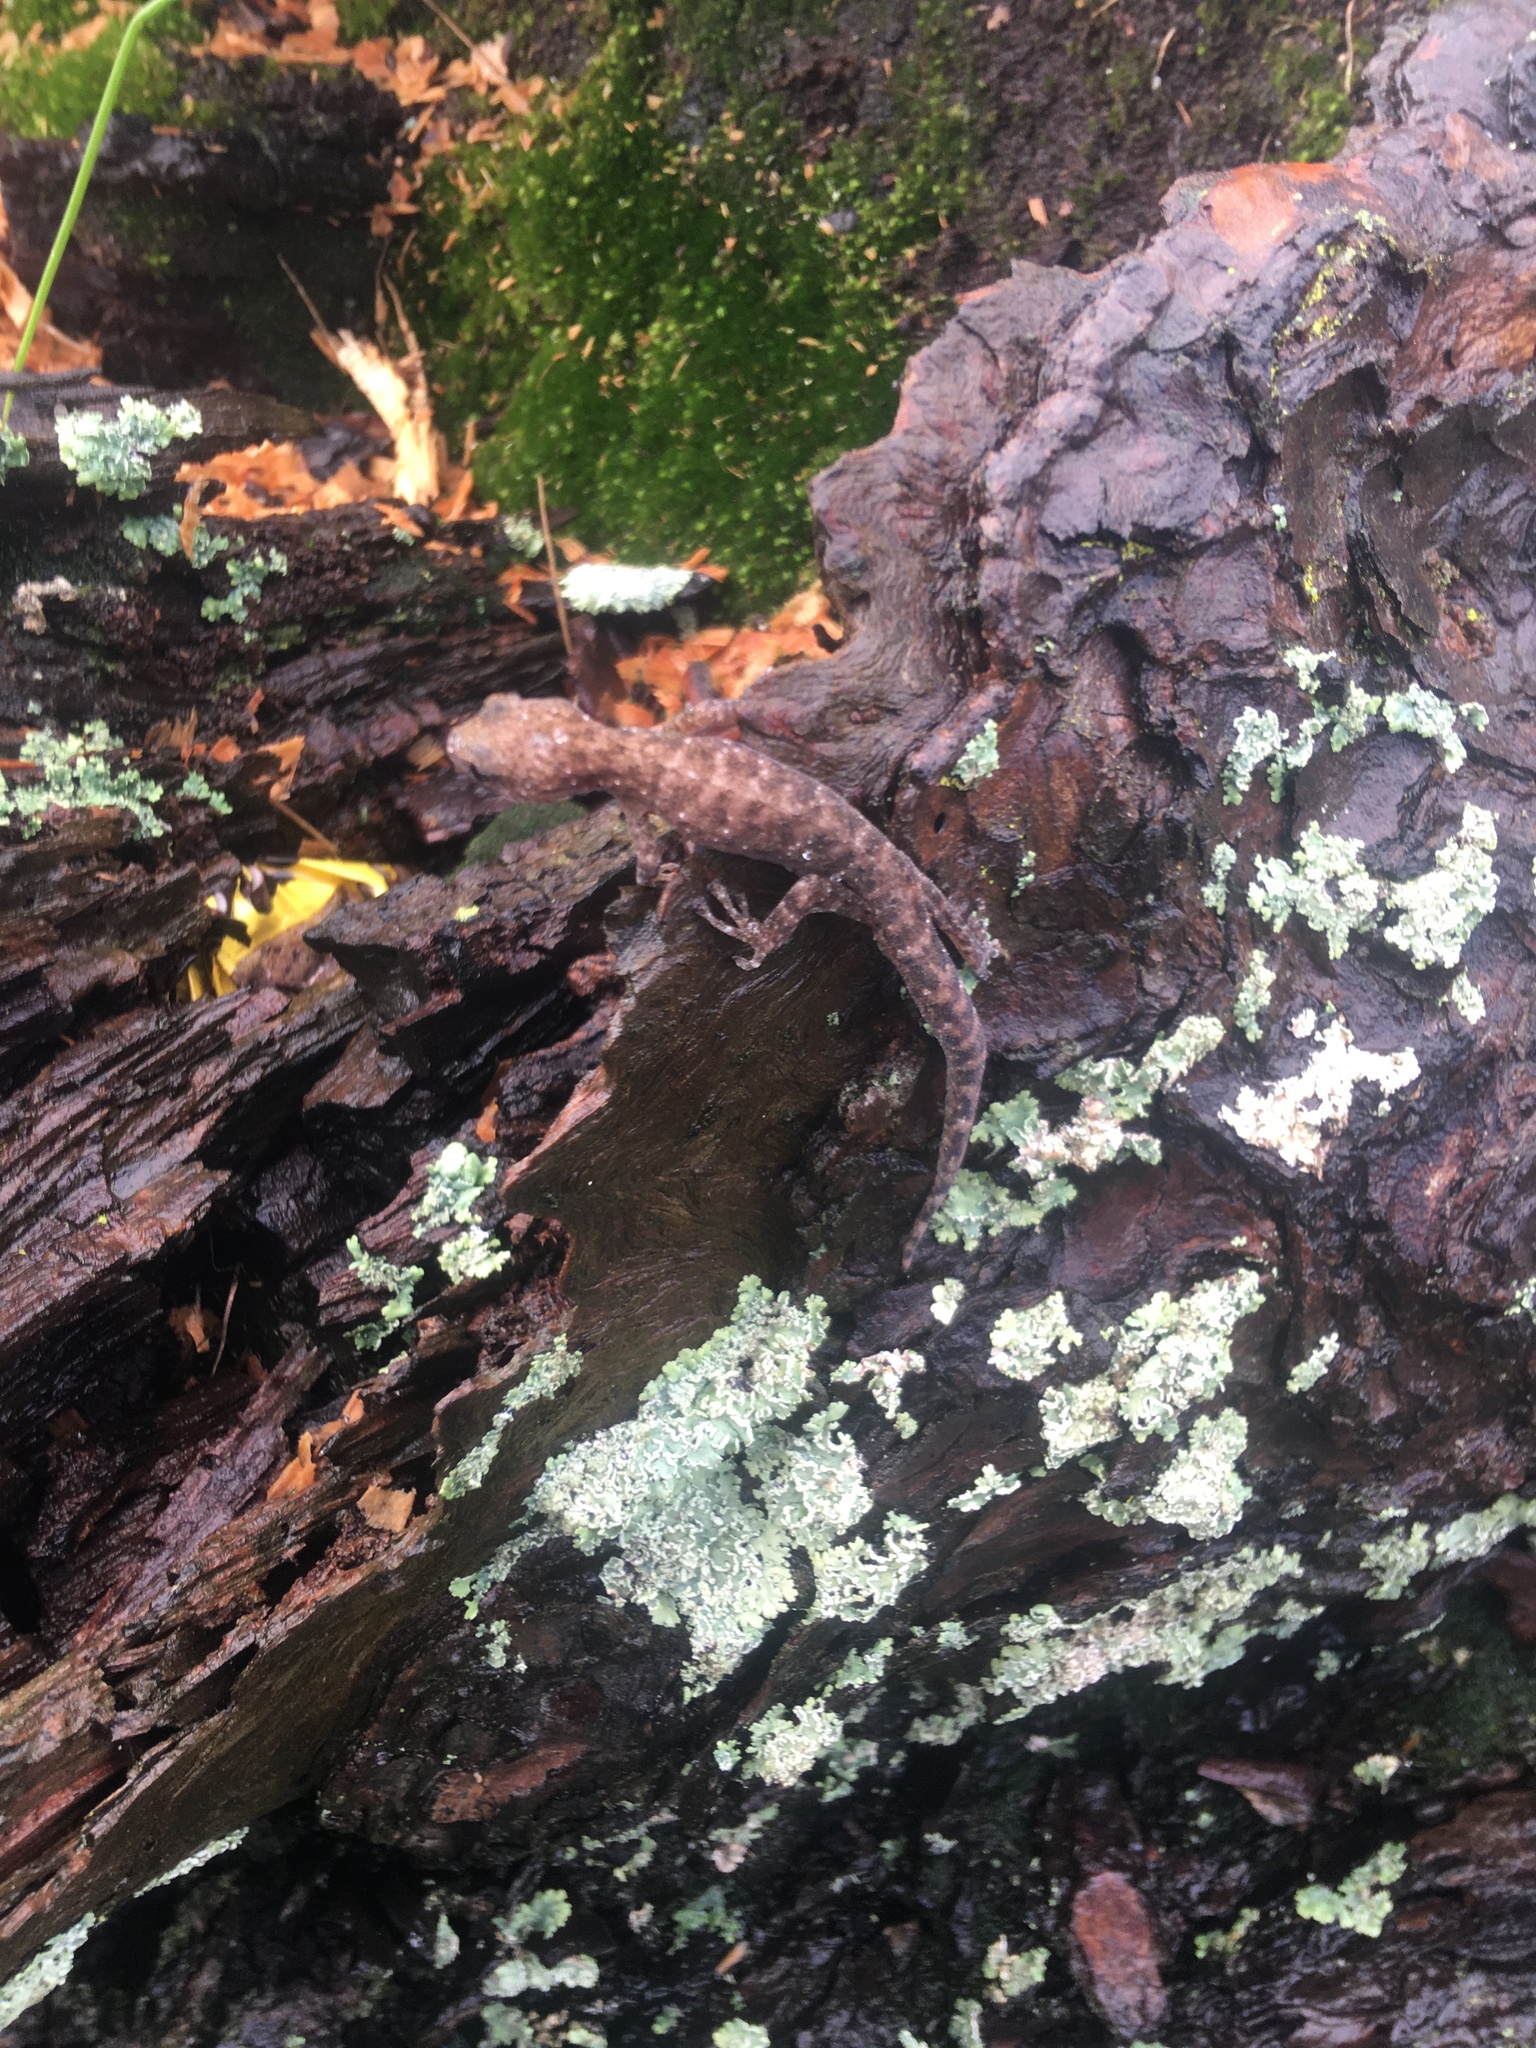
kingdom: Animalia
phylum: Chordata
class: Squamata
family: Gekkonidae
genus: Afrogecko
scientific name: Afrogecko porphyreus
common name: Marbled leaf-toed gecko
